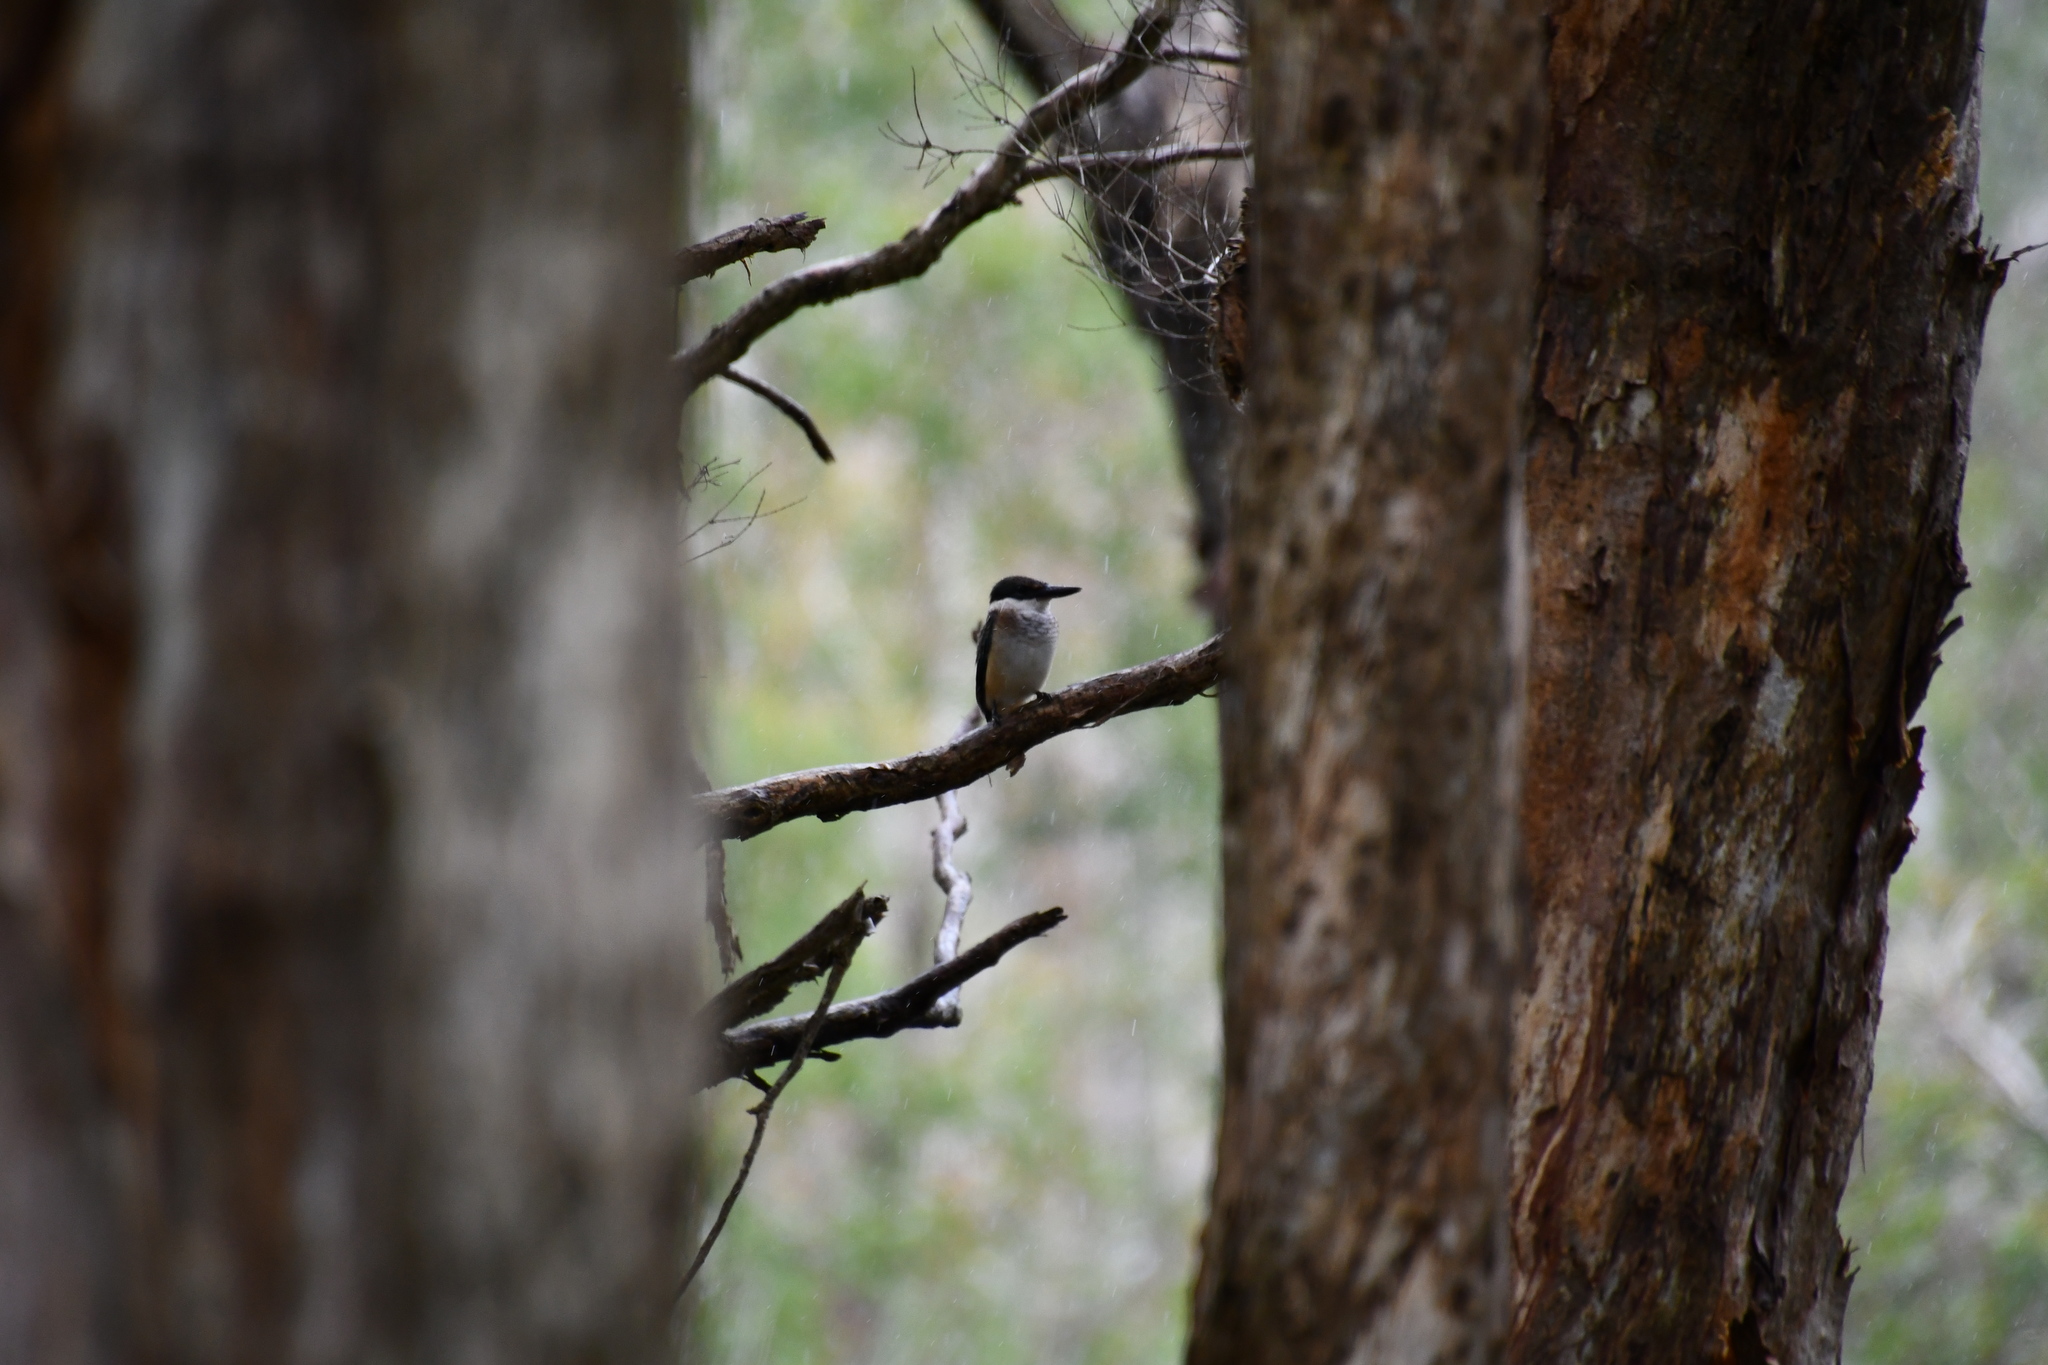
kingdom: Animalia
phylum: Chordata
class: Aves
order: Coraciiformes
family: Alcedinidae
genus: Todiramphus
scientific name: Todiramphus sanctus
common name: Sacred kingfisher
